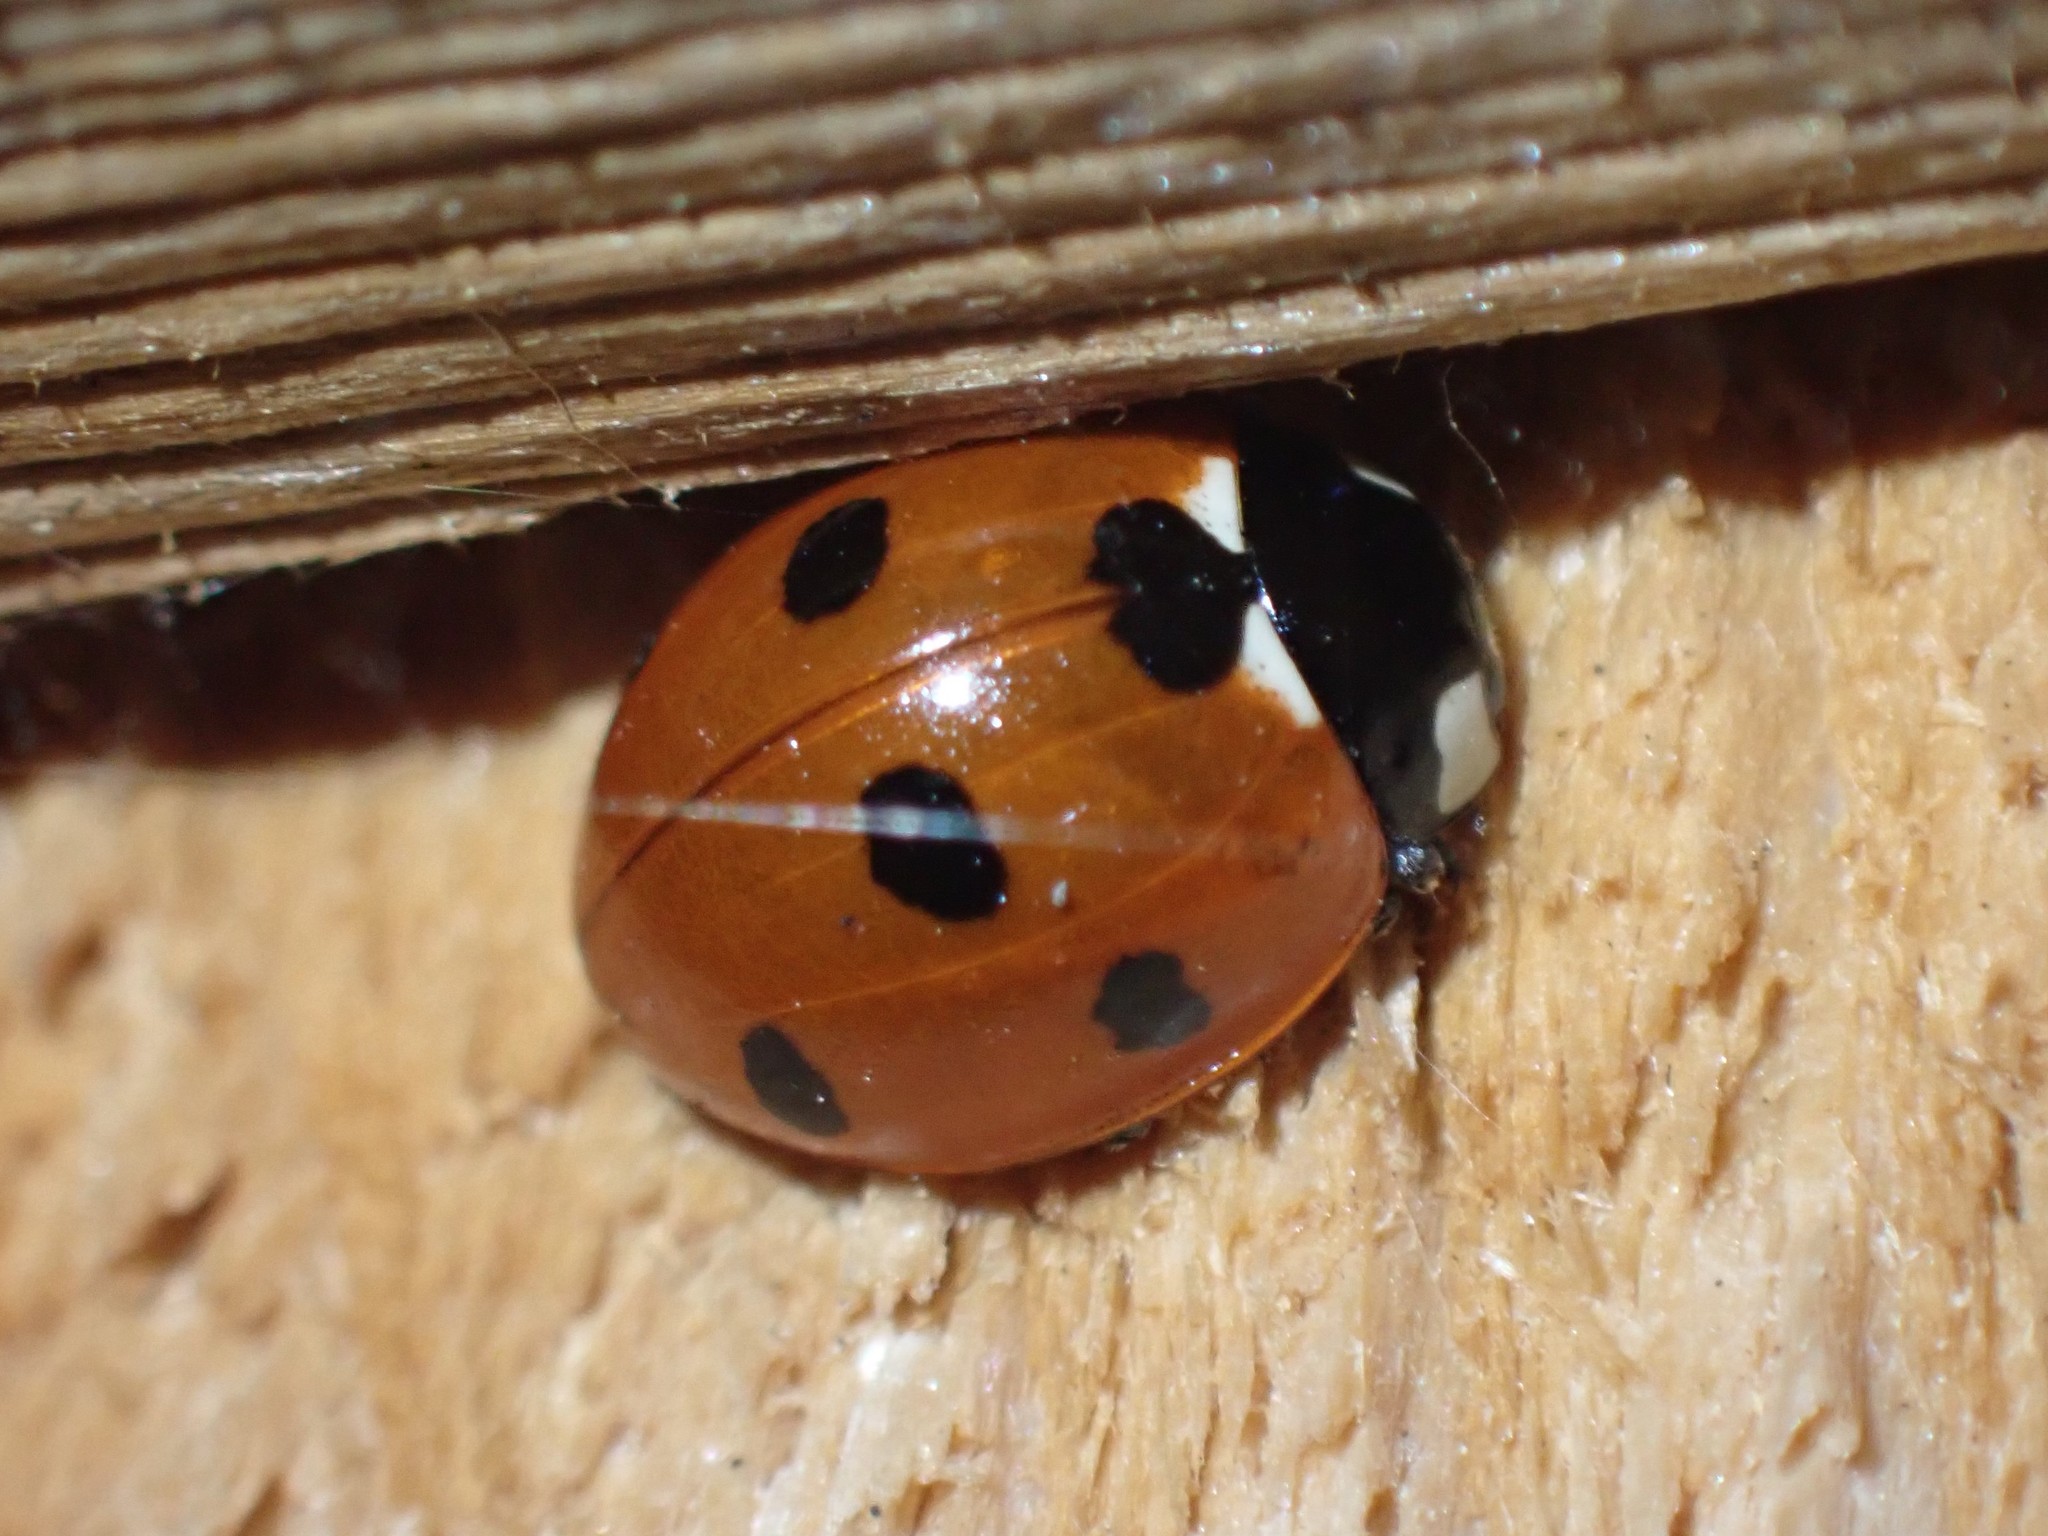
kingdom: Animalia
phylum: Arthropoda
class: Insecta
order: Coleoptera
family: Coccinellidae
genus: Coccinella
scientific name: Coccinella septempunctata
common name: Sevenspotted lady beetle
